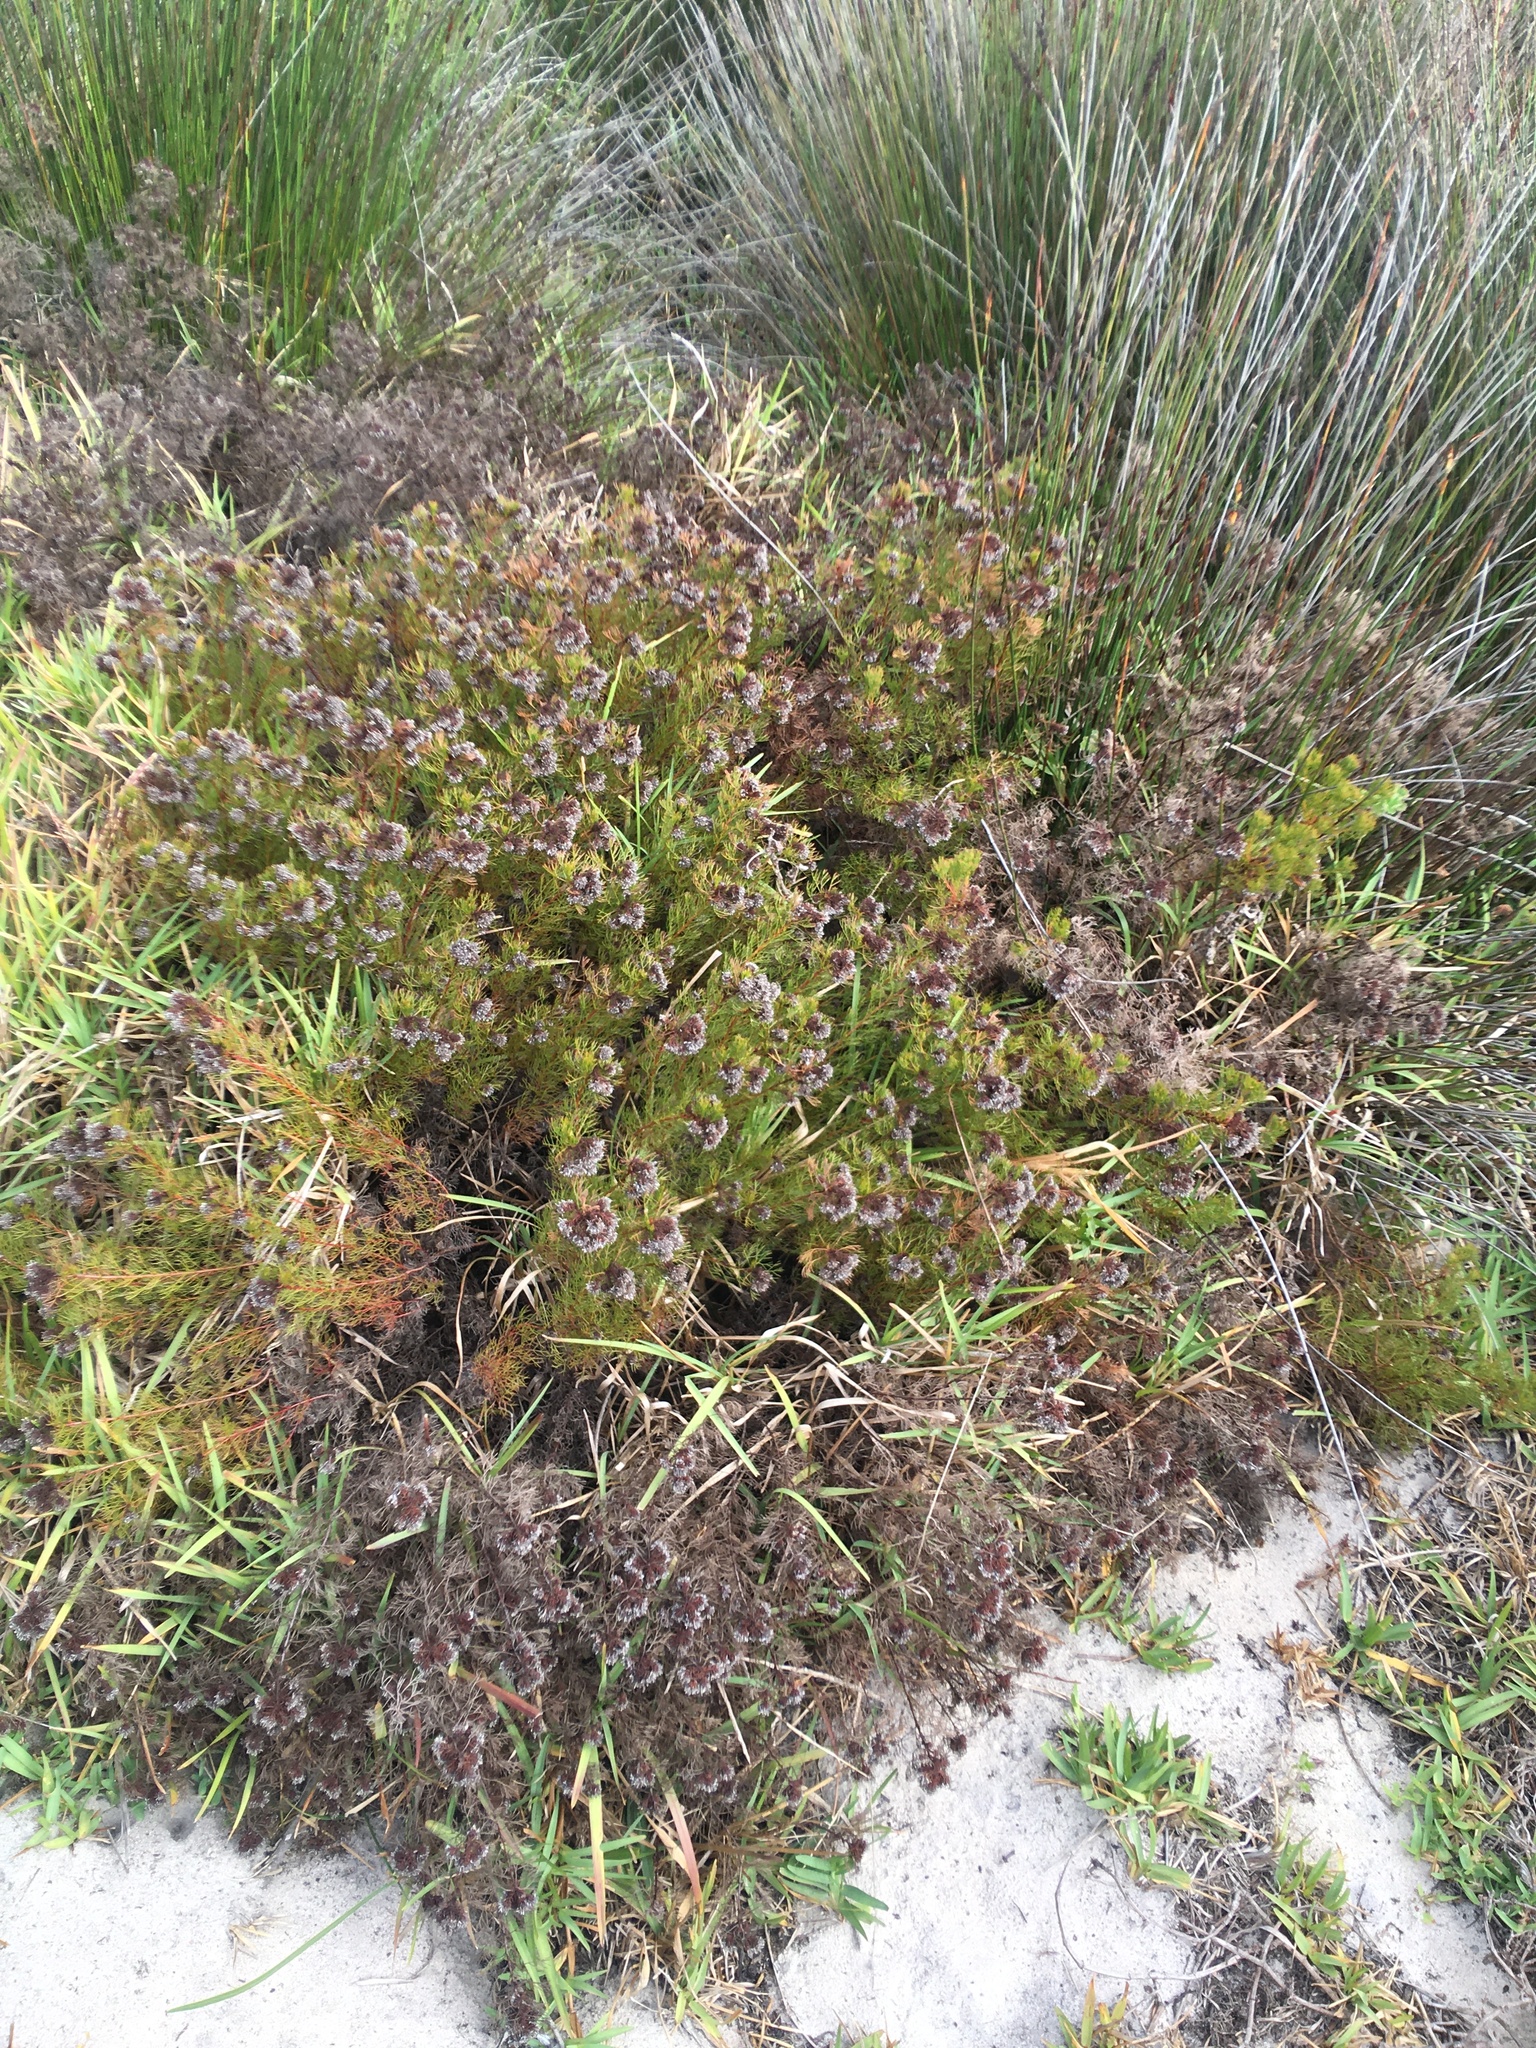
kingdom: Plantae
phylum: Tracheophyta
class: Magnoliopsida
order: Proteales
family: Proteaceae
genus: Serruria
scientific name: Serruria
